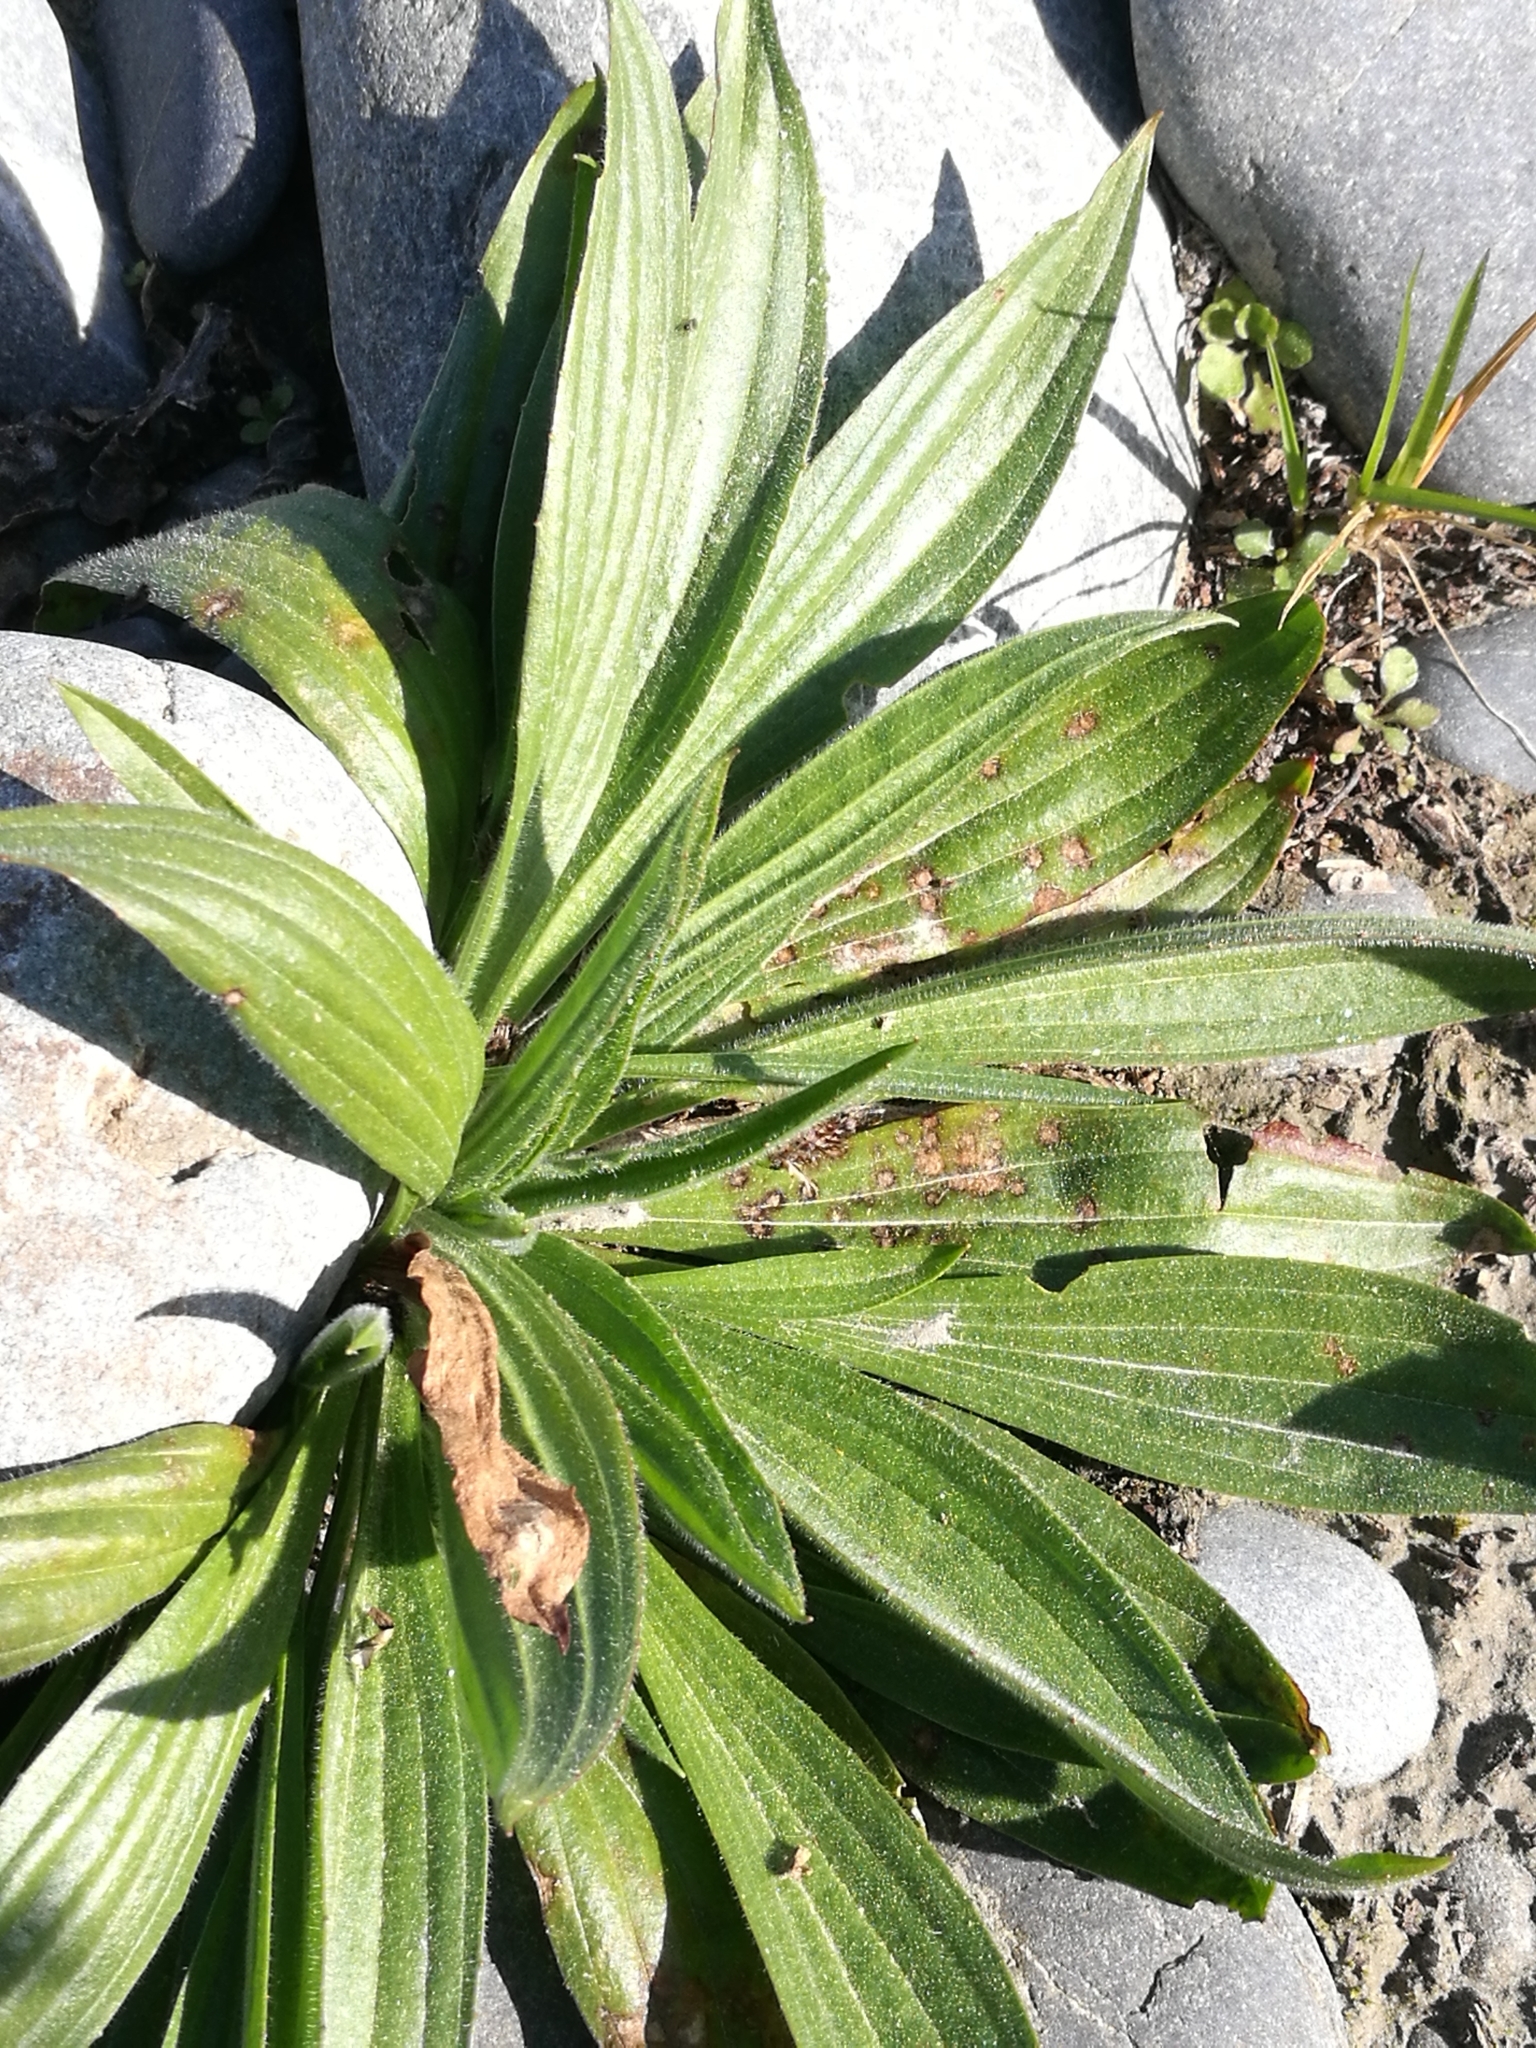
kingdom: Plantae
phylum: Tracheophyta
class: Magnoliopsida
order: Lamiales
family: Plantaginaceae
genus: Plantago
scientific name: Plantago lanceolata
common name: Ribwort plantain
